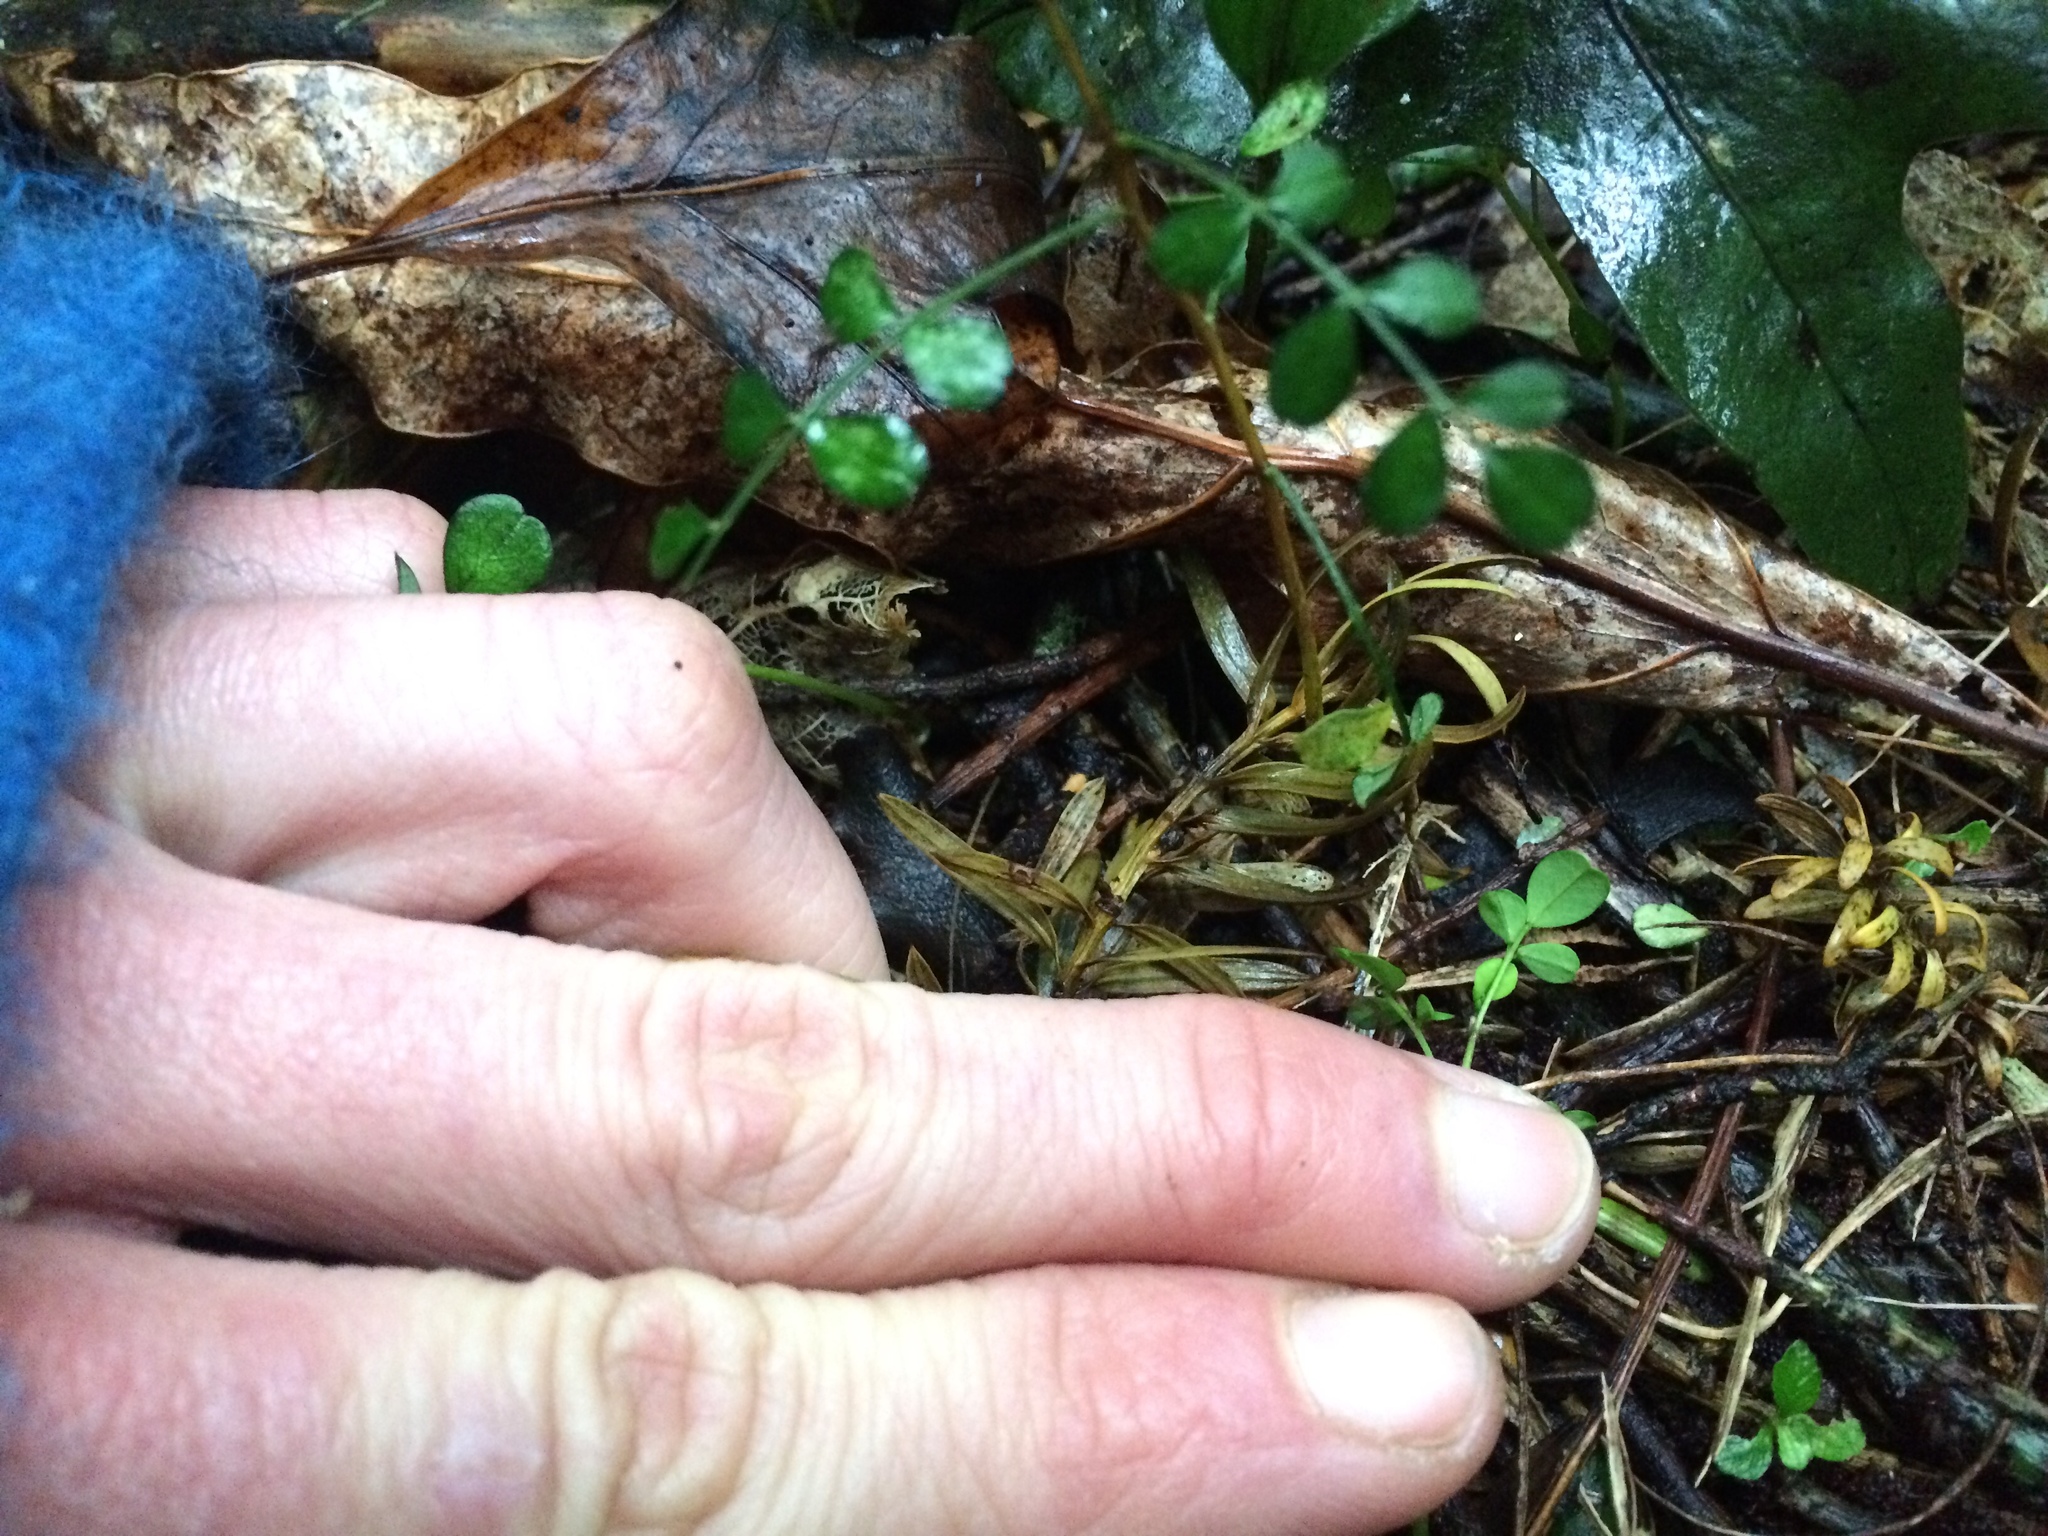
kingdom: Plantae
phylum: Tracheophyta
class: Magnoliopsida
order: Fabales
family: Fabaceae
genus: Sophora
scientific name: Sophora microphylla
